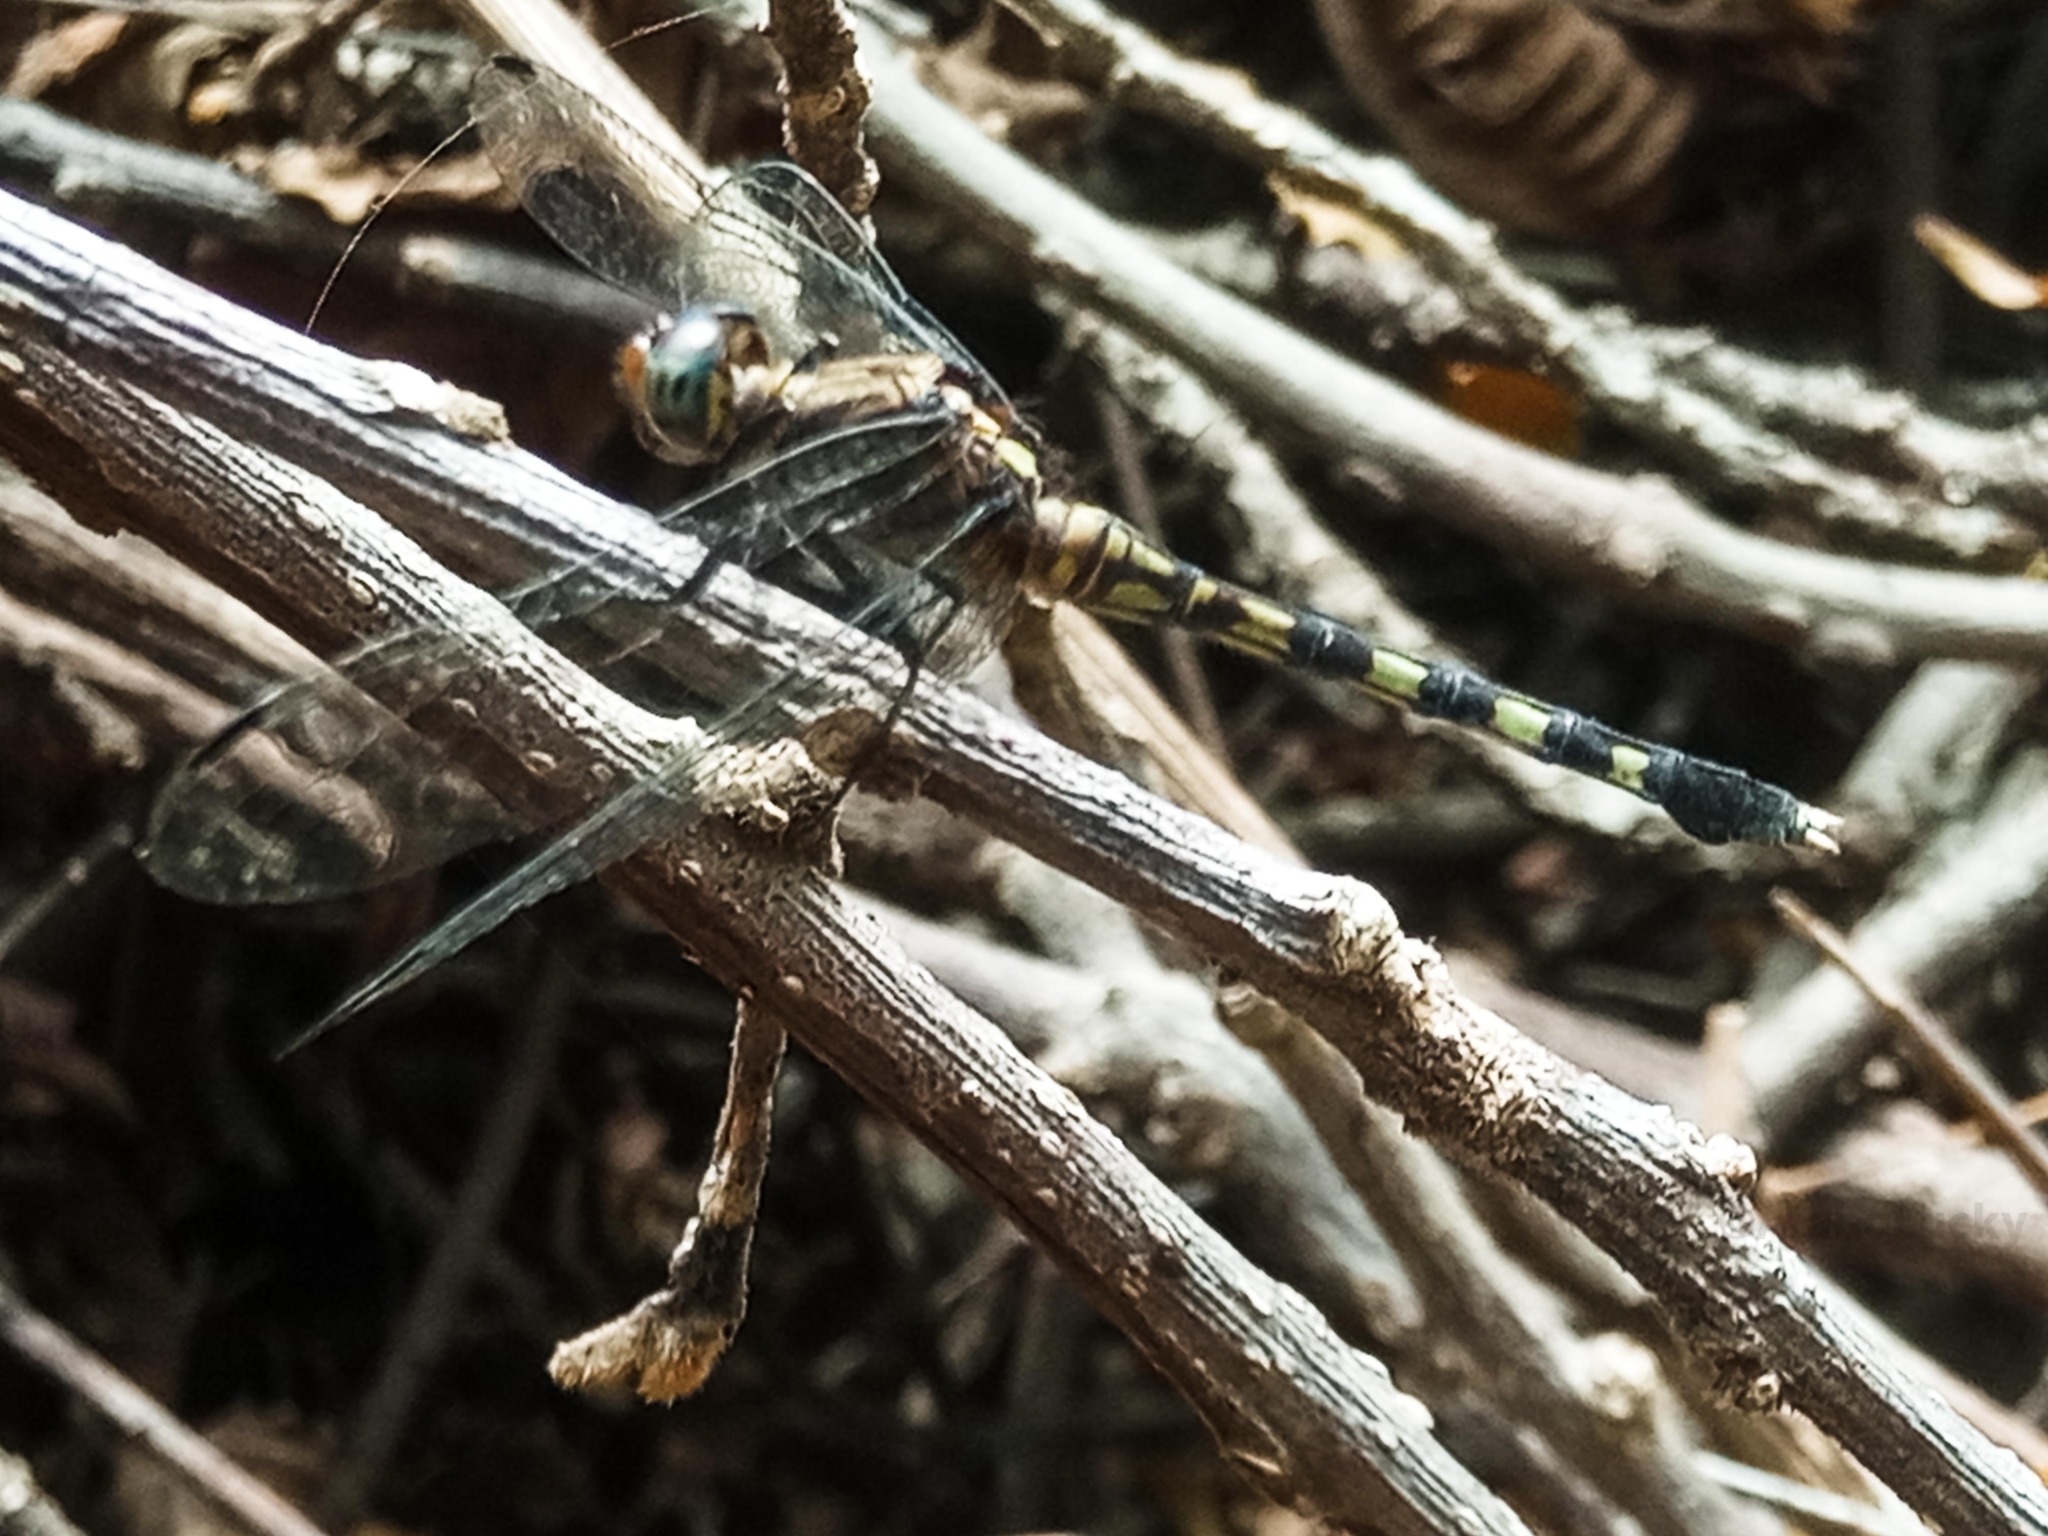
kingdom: Animalia
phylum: Arthropoda
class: Insecta
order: Odonata
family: Libellulidae
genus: Orthetrum
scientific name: Orthetrum julia
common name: Julia skimmer
